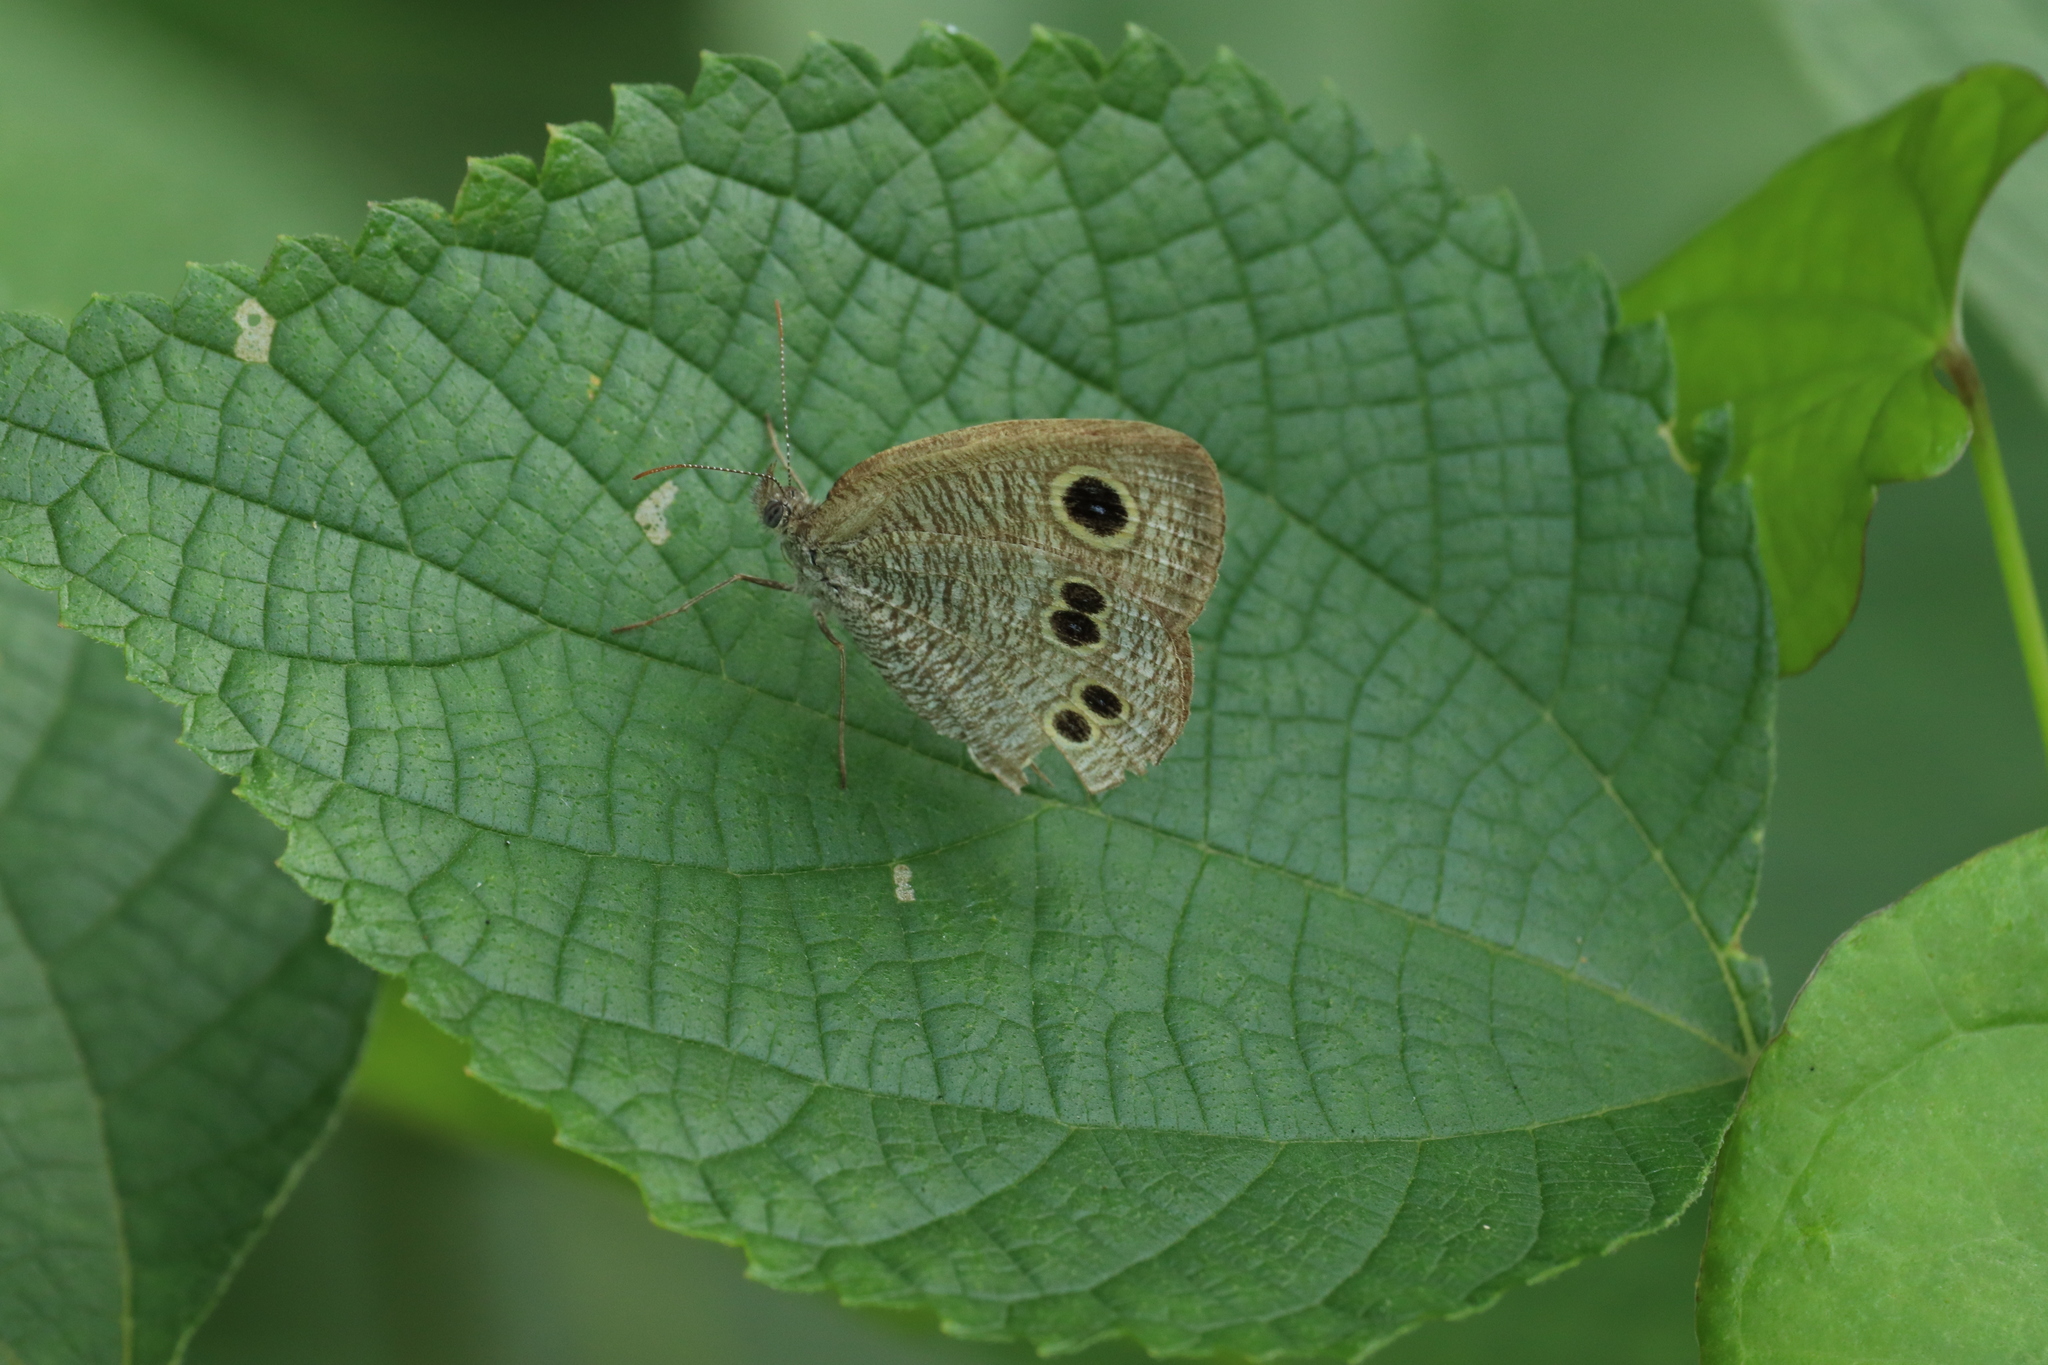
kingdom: Animalia
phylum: Arthropoda
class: Insecta
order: Lepidoptera
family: Nymphalidae
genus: Ypthima
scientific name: Ypthima argus
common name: Common fivering
